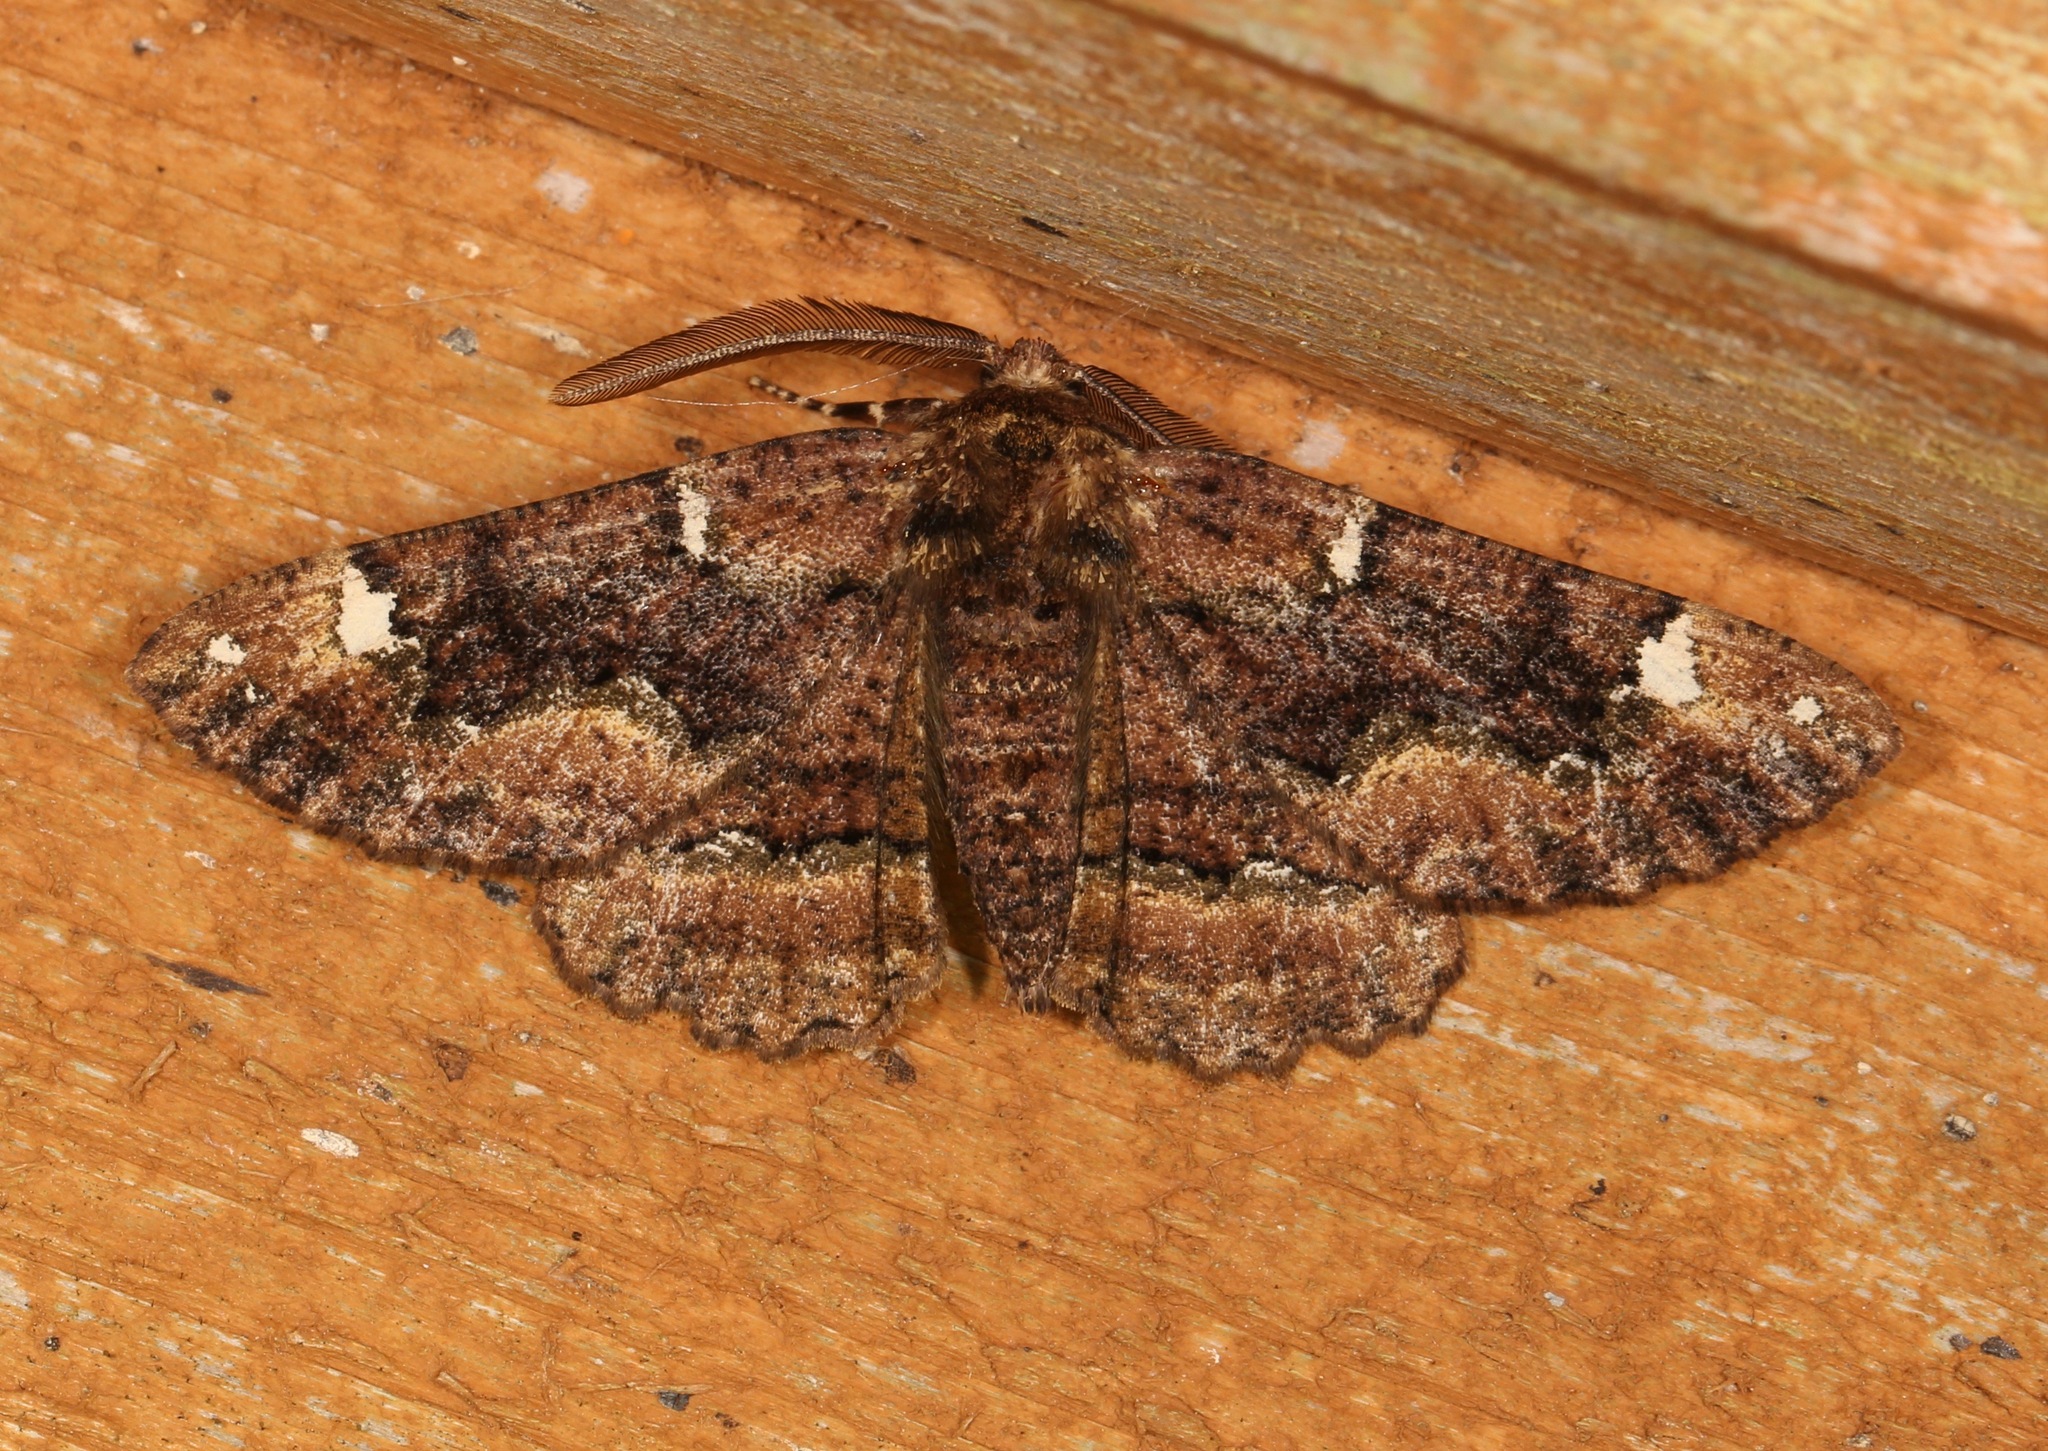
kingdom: Animalia
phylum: Arthropoda
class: Insecta
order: Lepidoptera
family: Geometridae
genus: Phaeoura
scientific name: Phaeoura quernaria
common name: Oak beauty
